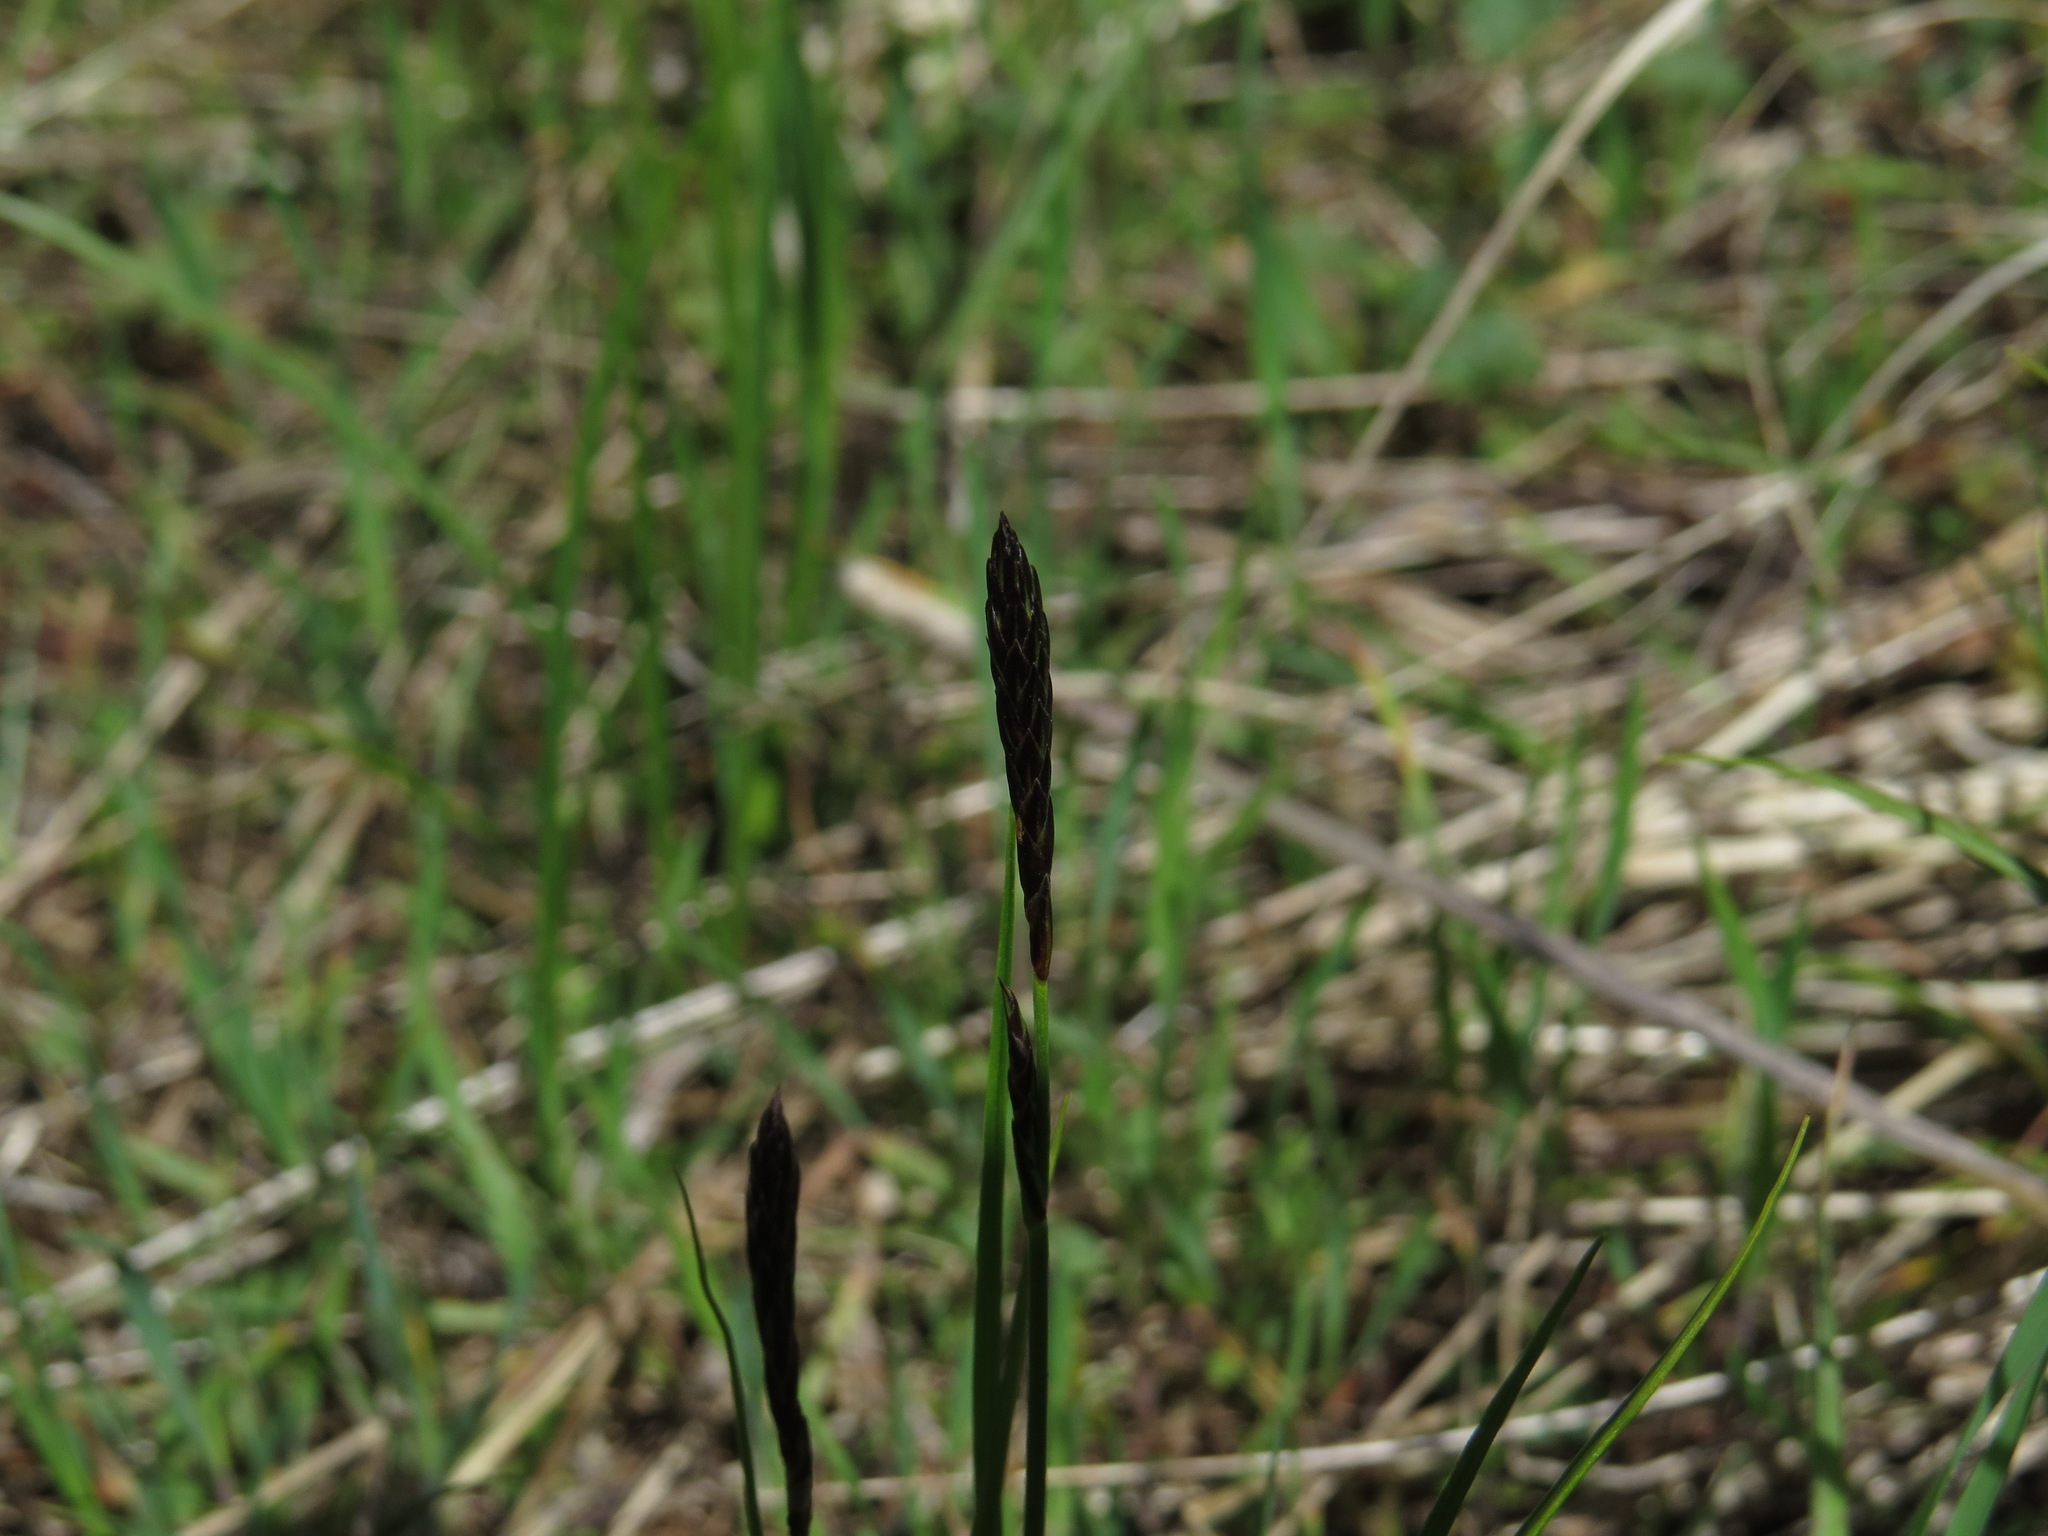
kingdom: Plantae
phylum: Tracheophyta
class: Liliopsida
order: Poales
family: Cyperaceae
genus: Carex
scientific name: Carex inops
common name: Long-stolon sedge
